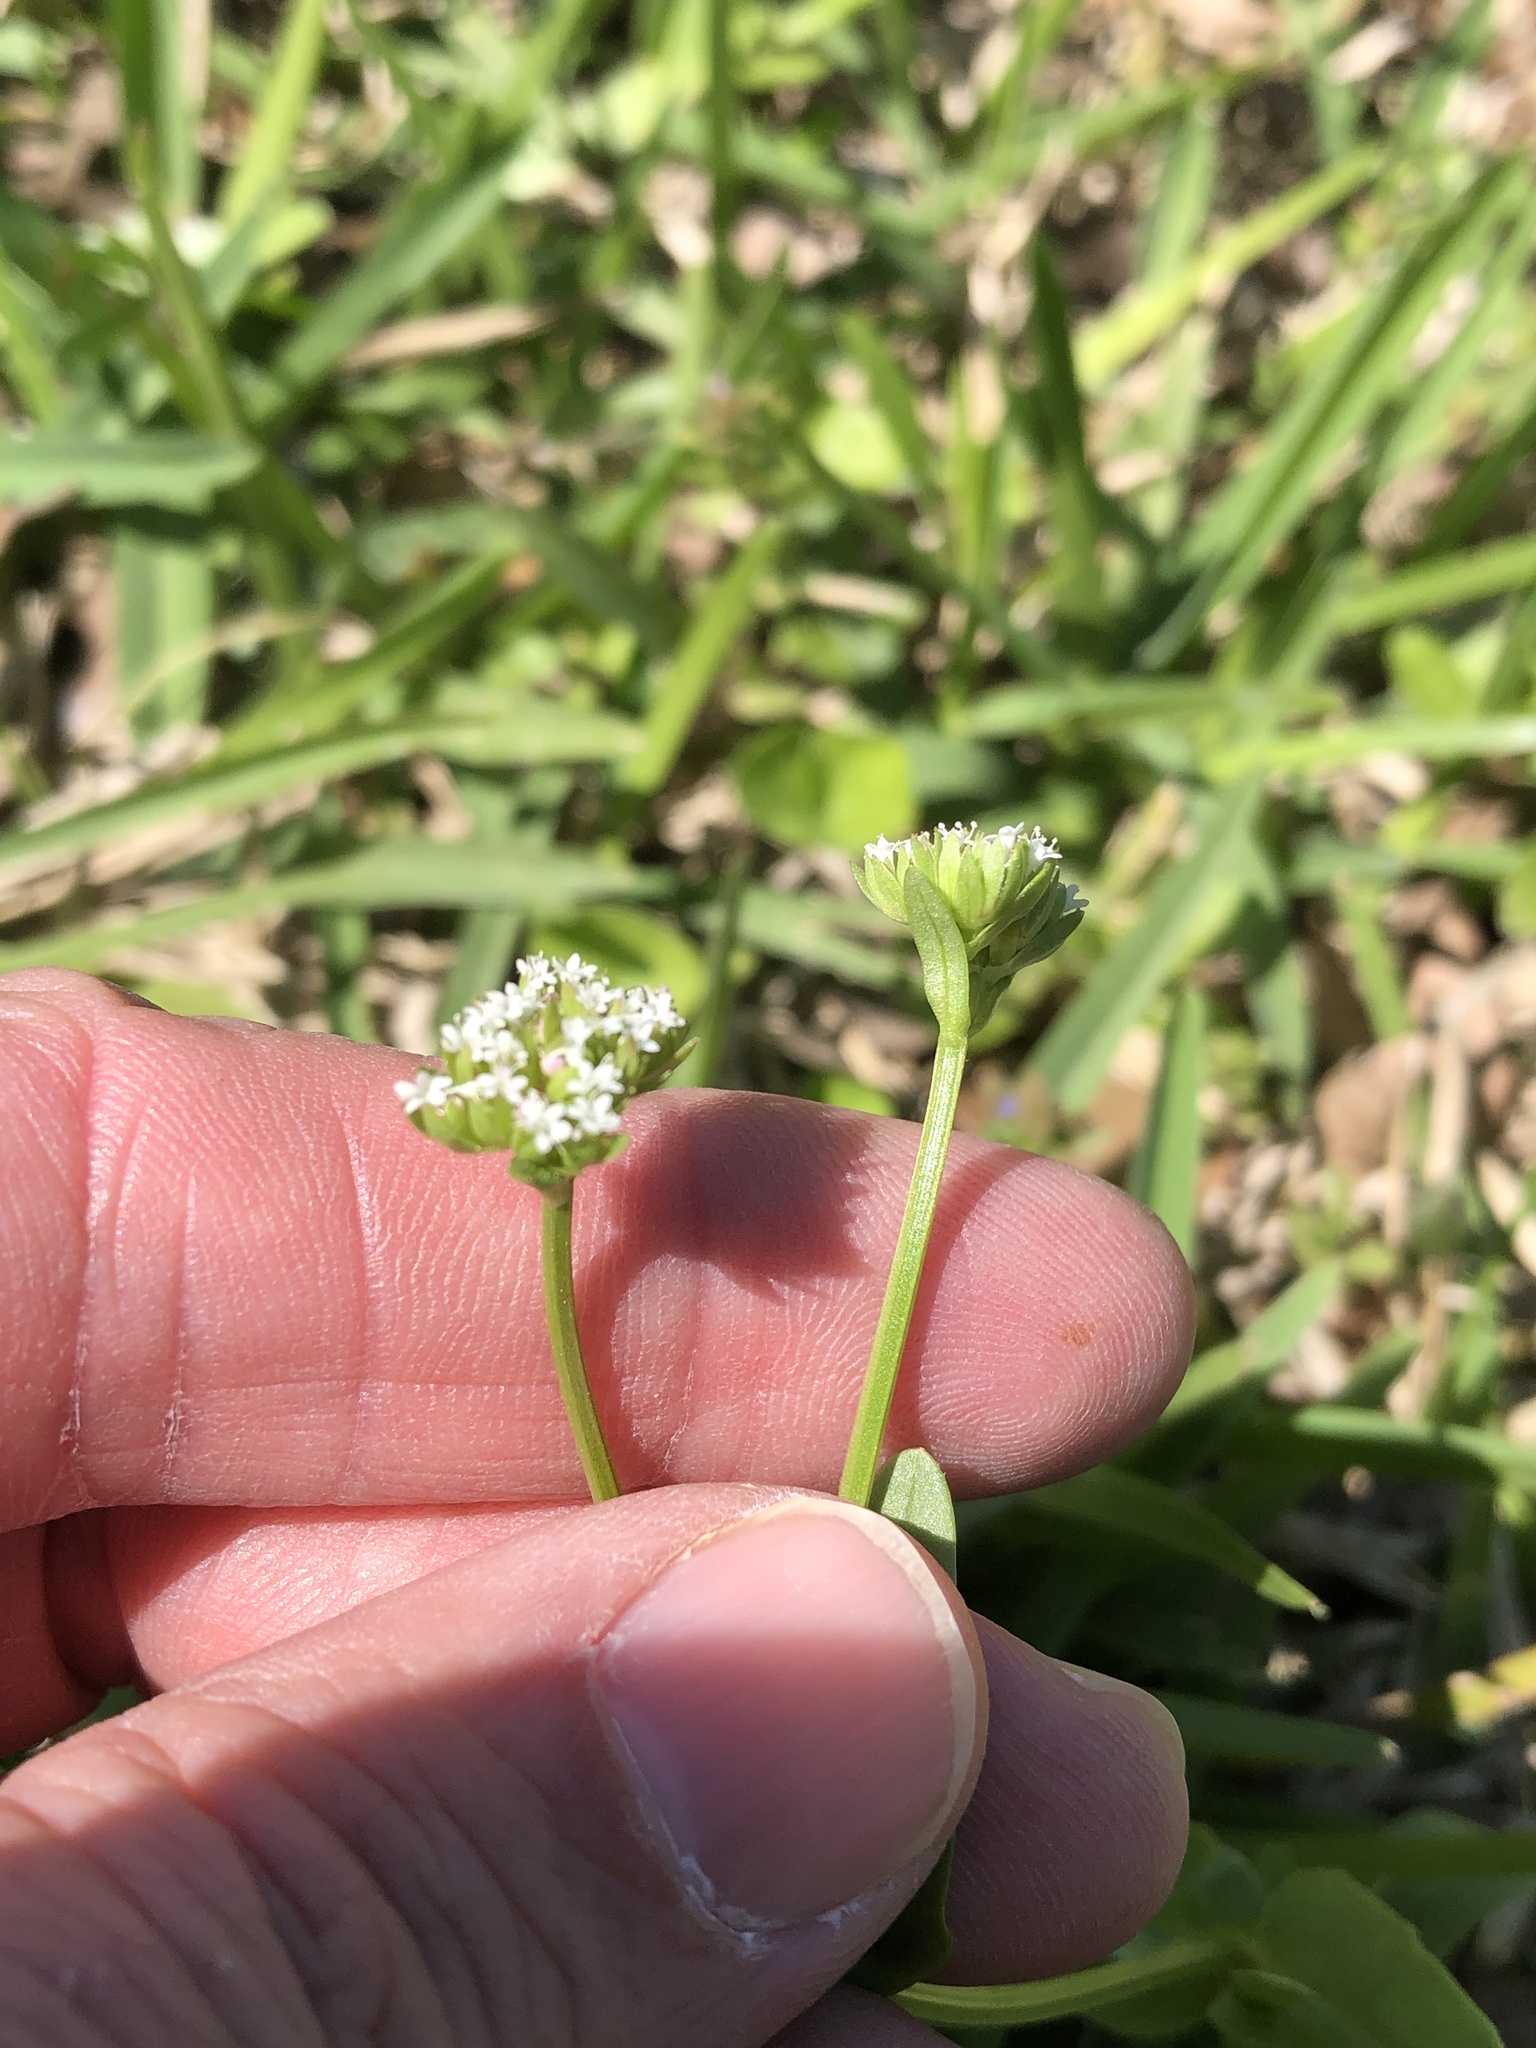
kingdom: Plantae
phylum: Tracheophyta
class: Magnoliopsida
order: Dipsacales
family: Caprifoliaceae
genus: Valerianella
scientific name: Valerianella radiata
